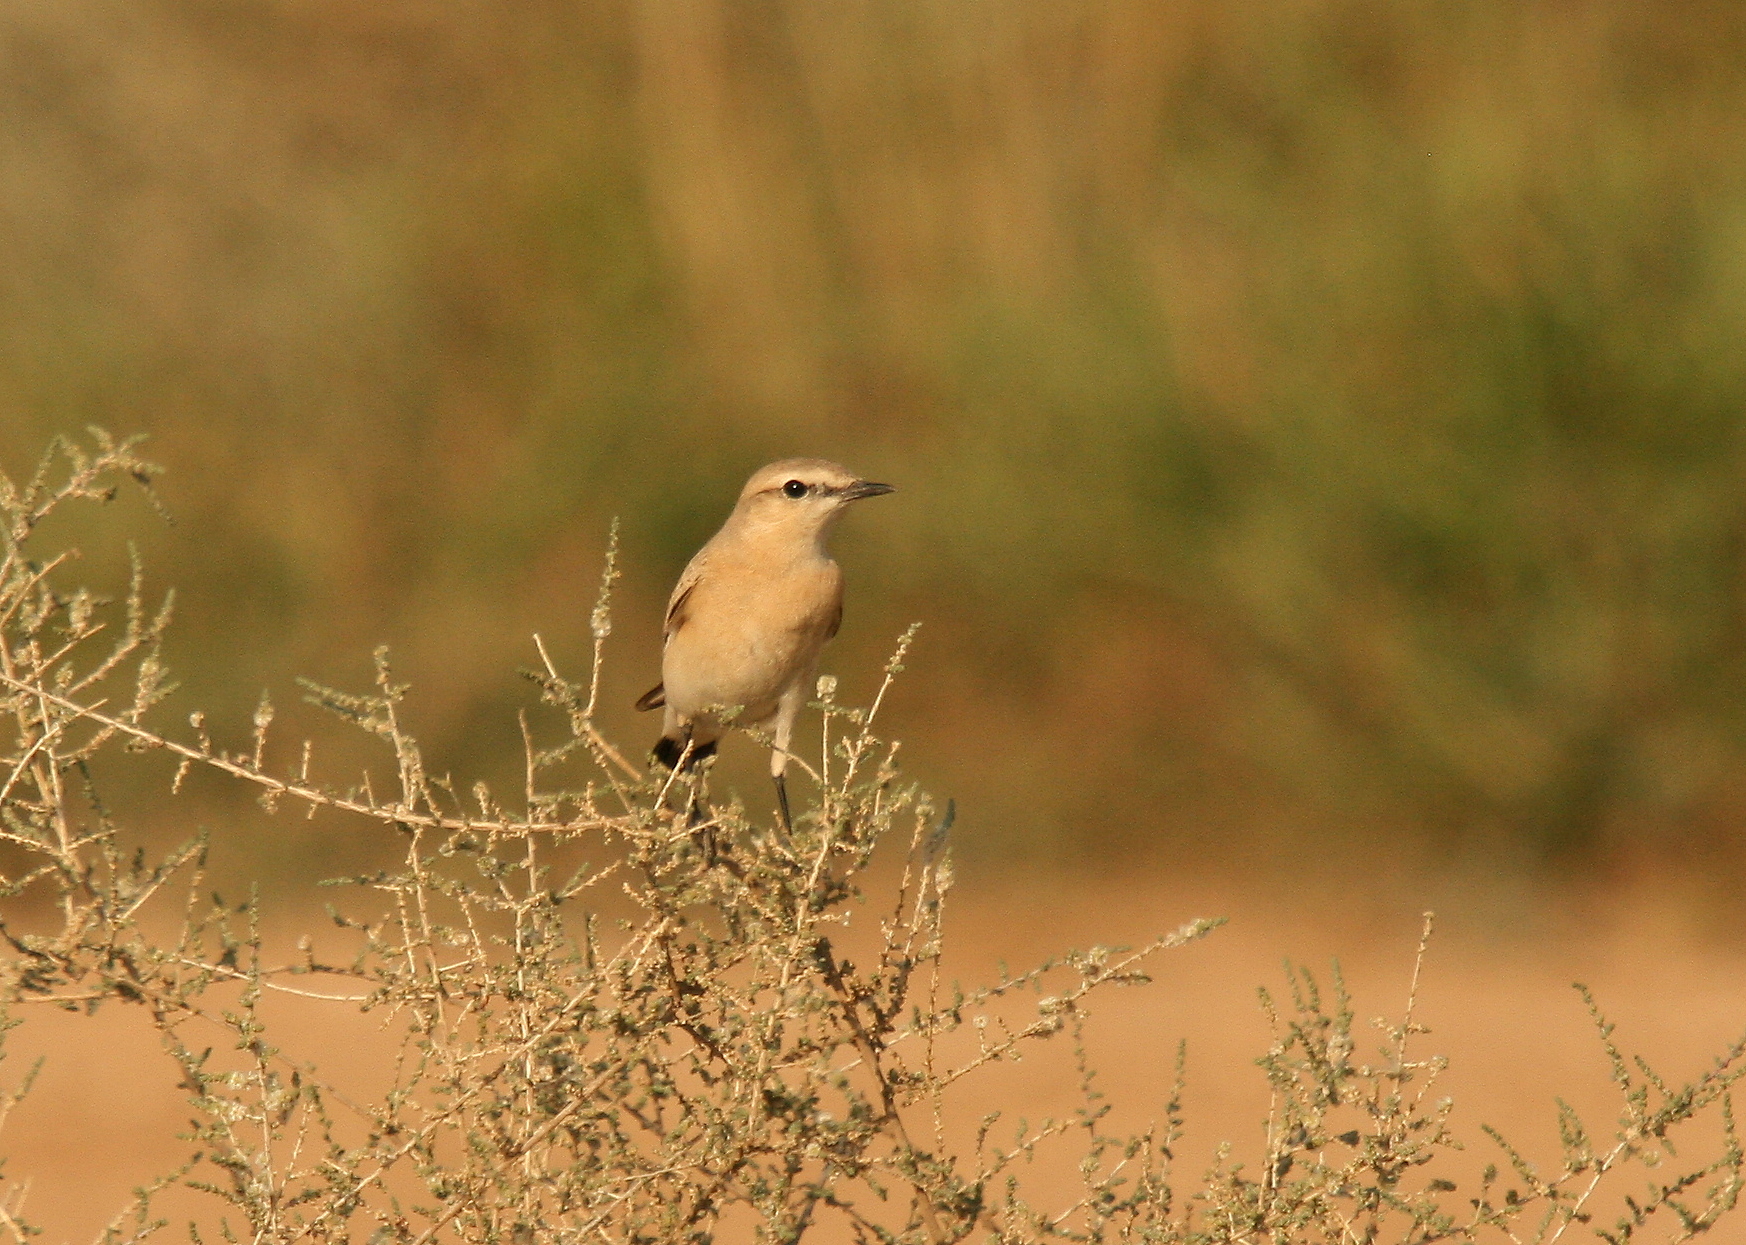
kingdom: Animalia
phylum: Chordata
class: Aves
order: Passeriformes
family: Muscicapidae
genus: Oenanthe
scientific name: Oenanthe isabellina
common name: Isabelline wheatear
